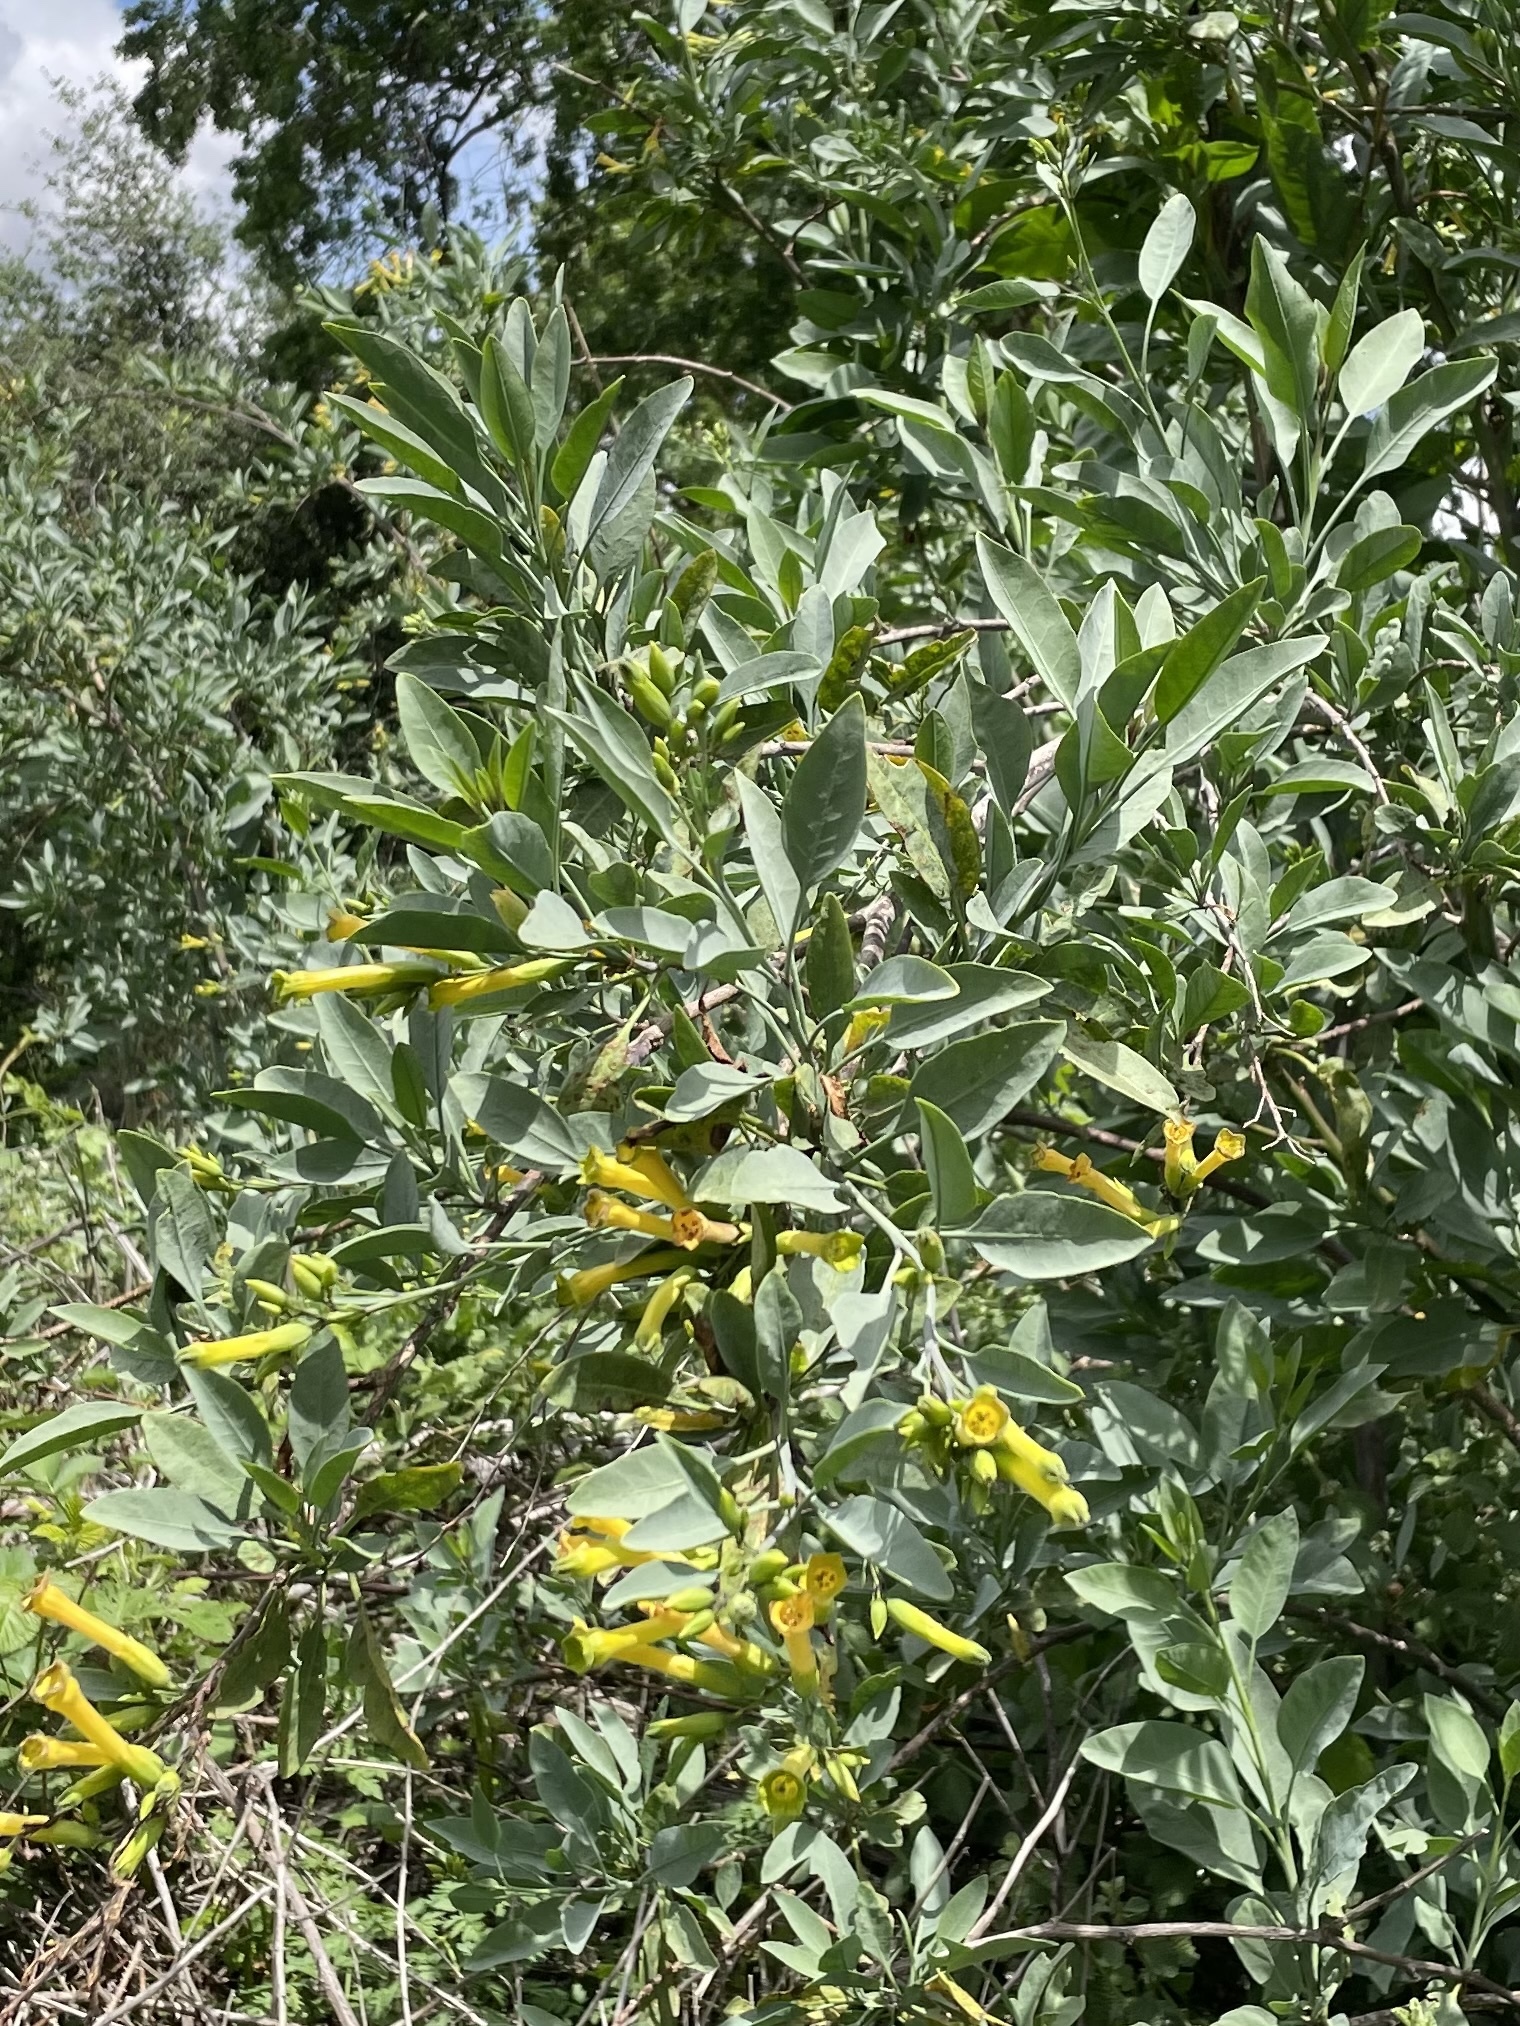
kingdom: Plantae
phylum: Tracheophyta
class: Magnoliopsida
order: Solanales
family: Solanaceae
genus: Nicotiana
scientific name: Nicotiana glauca
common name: Tree tobacco
